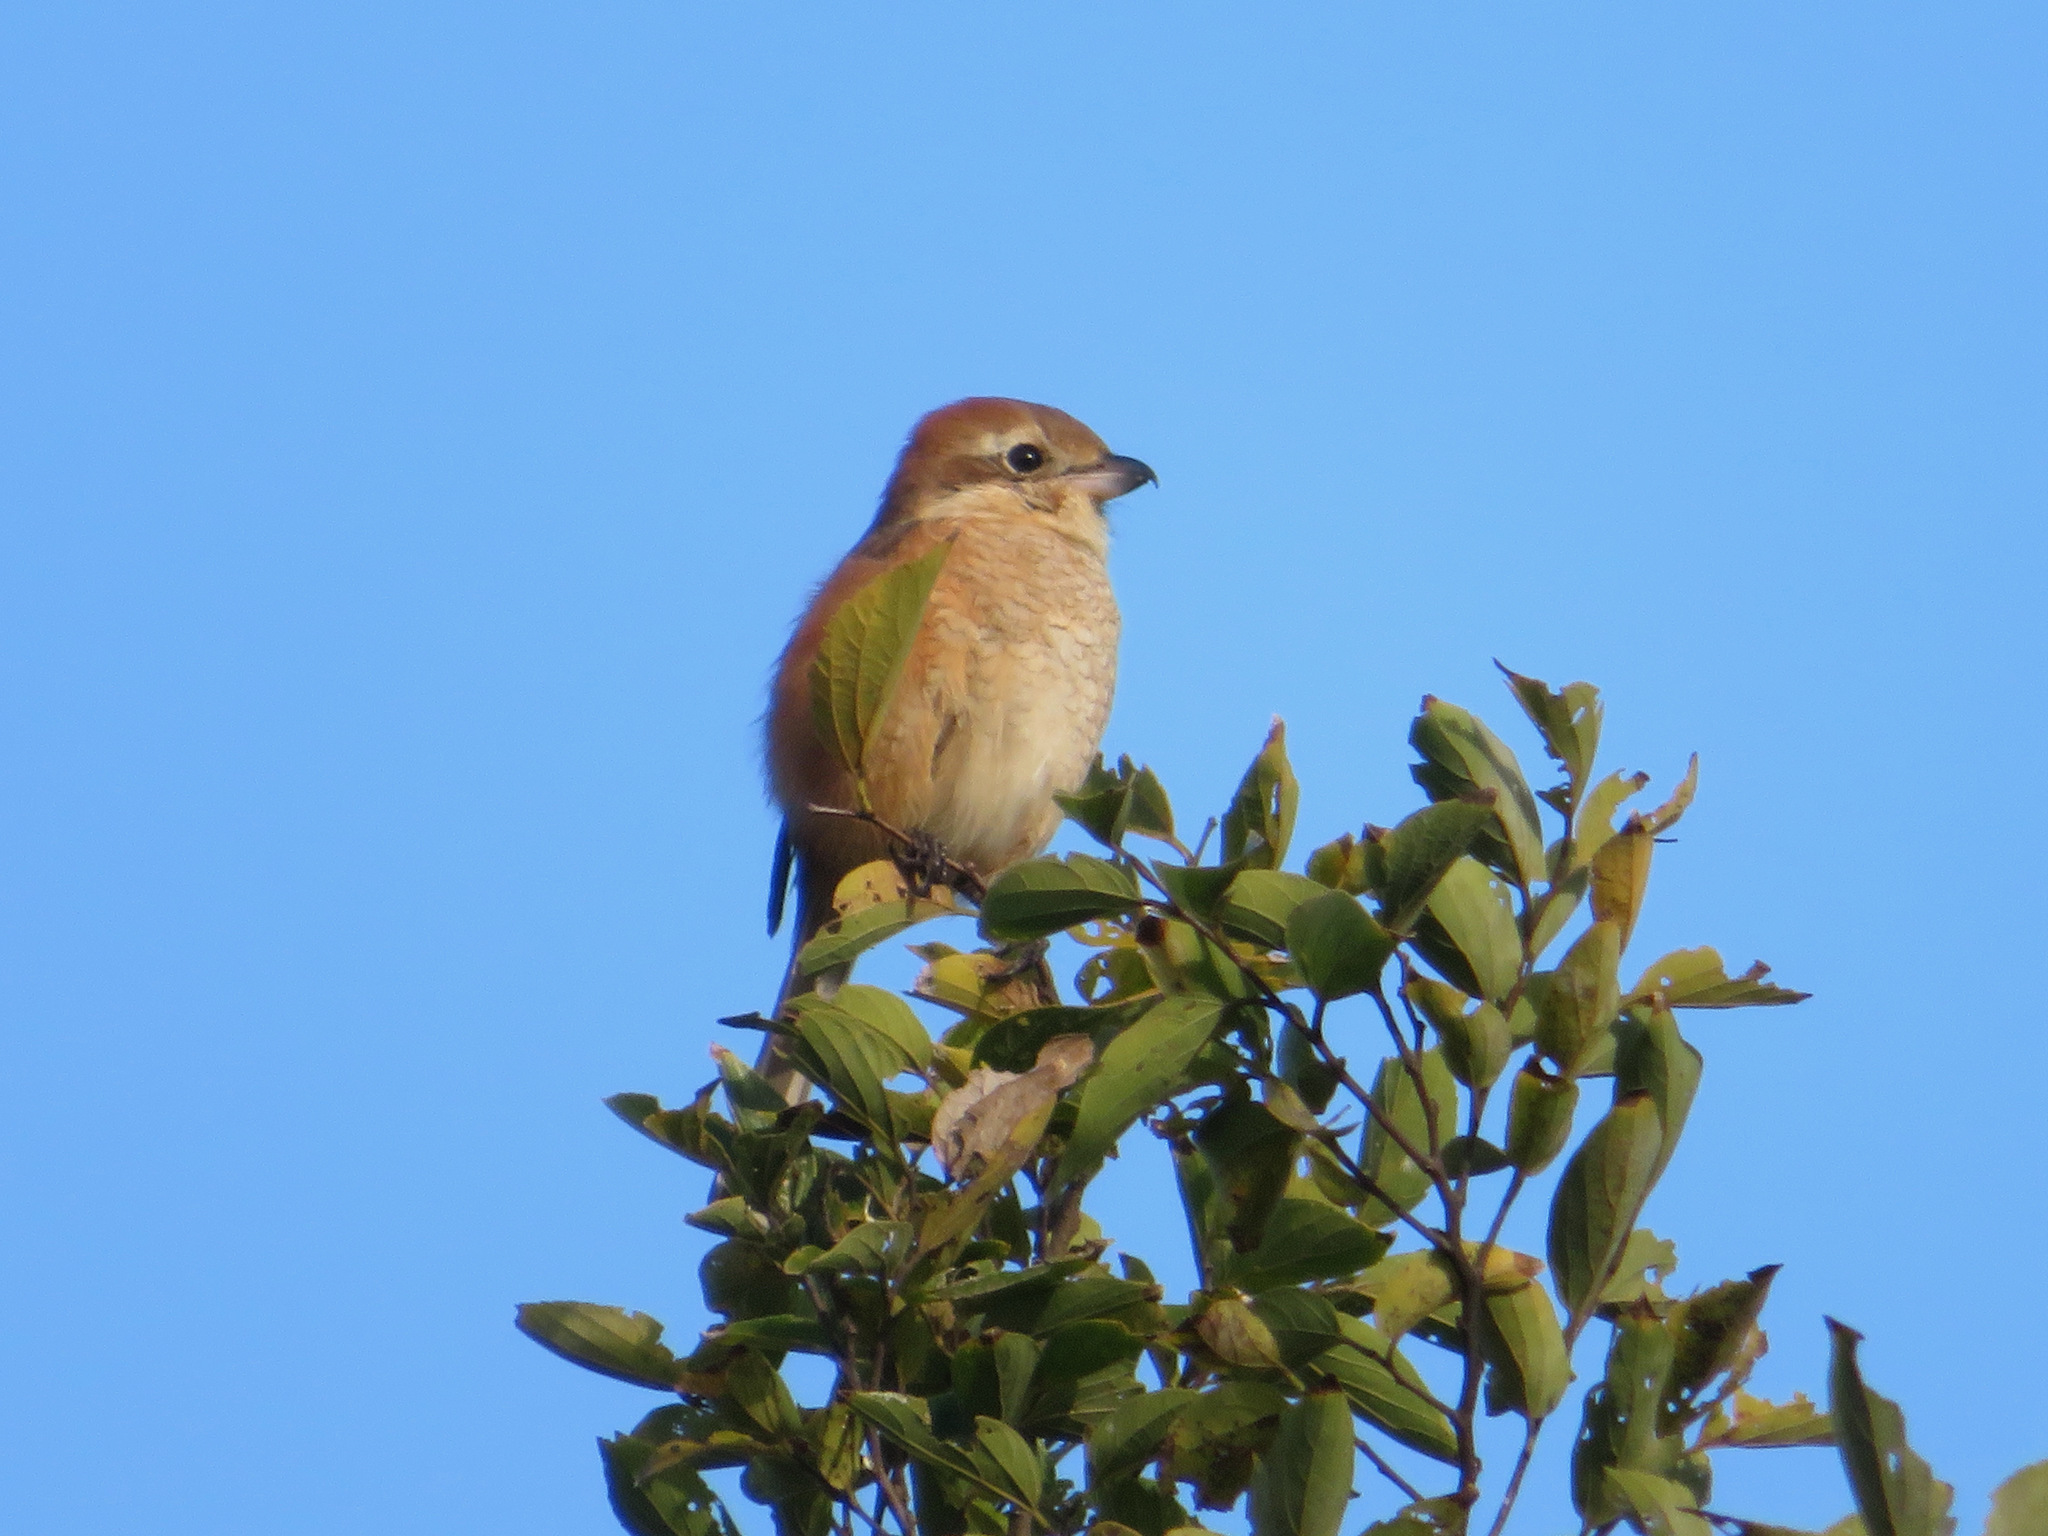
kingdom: Animalia
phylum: Chordata
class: Aves
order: Passeriformes
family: Laniidae
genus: Lanius
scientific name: Lanius bucephalus
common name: Bull-headed shrike
